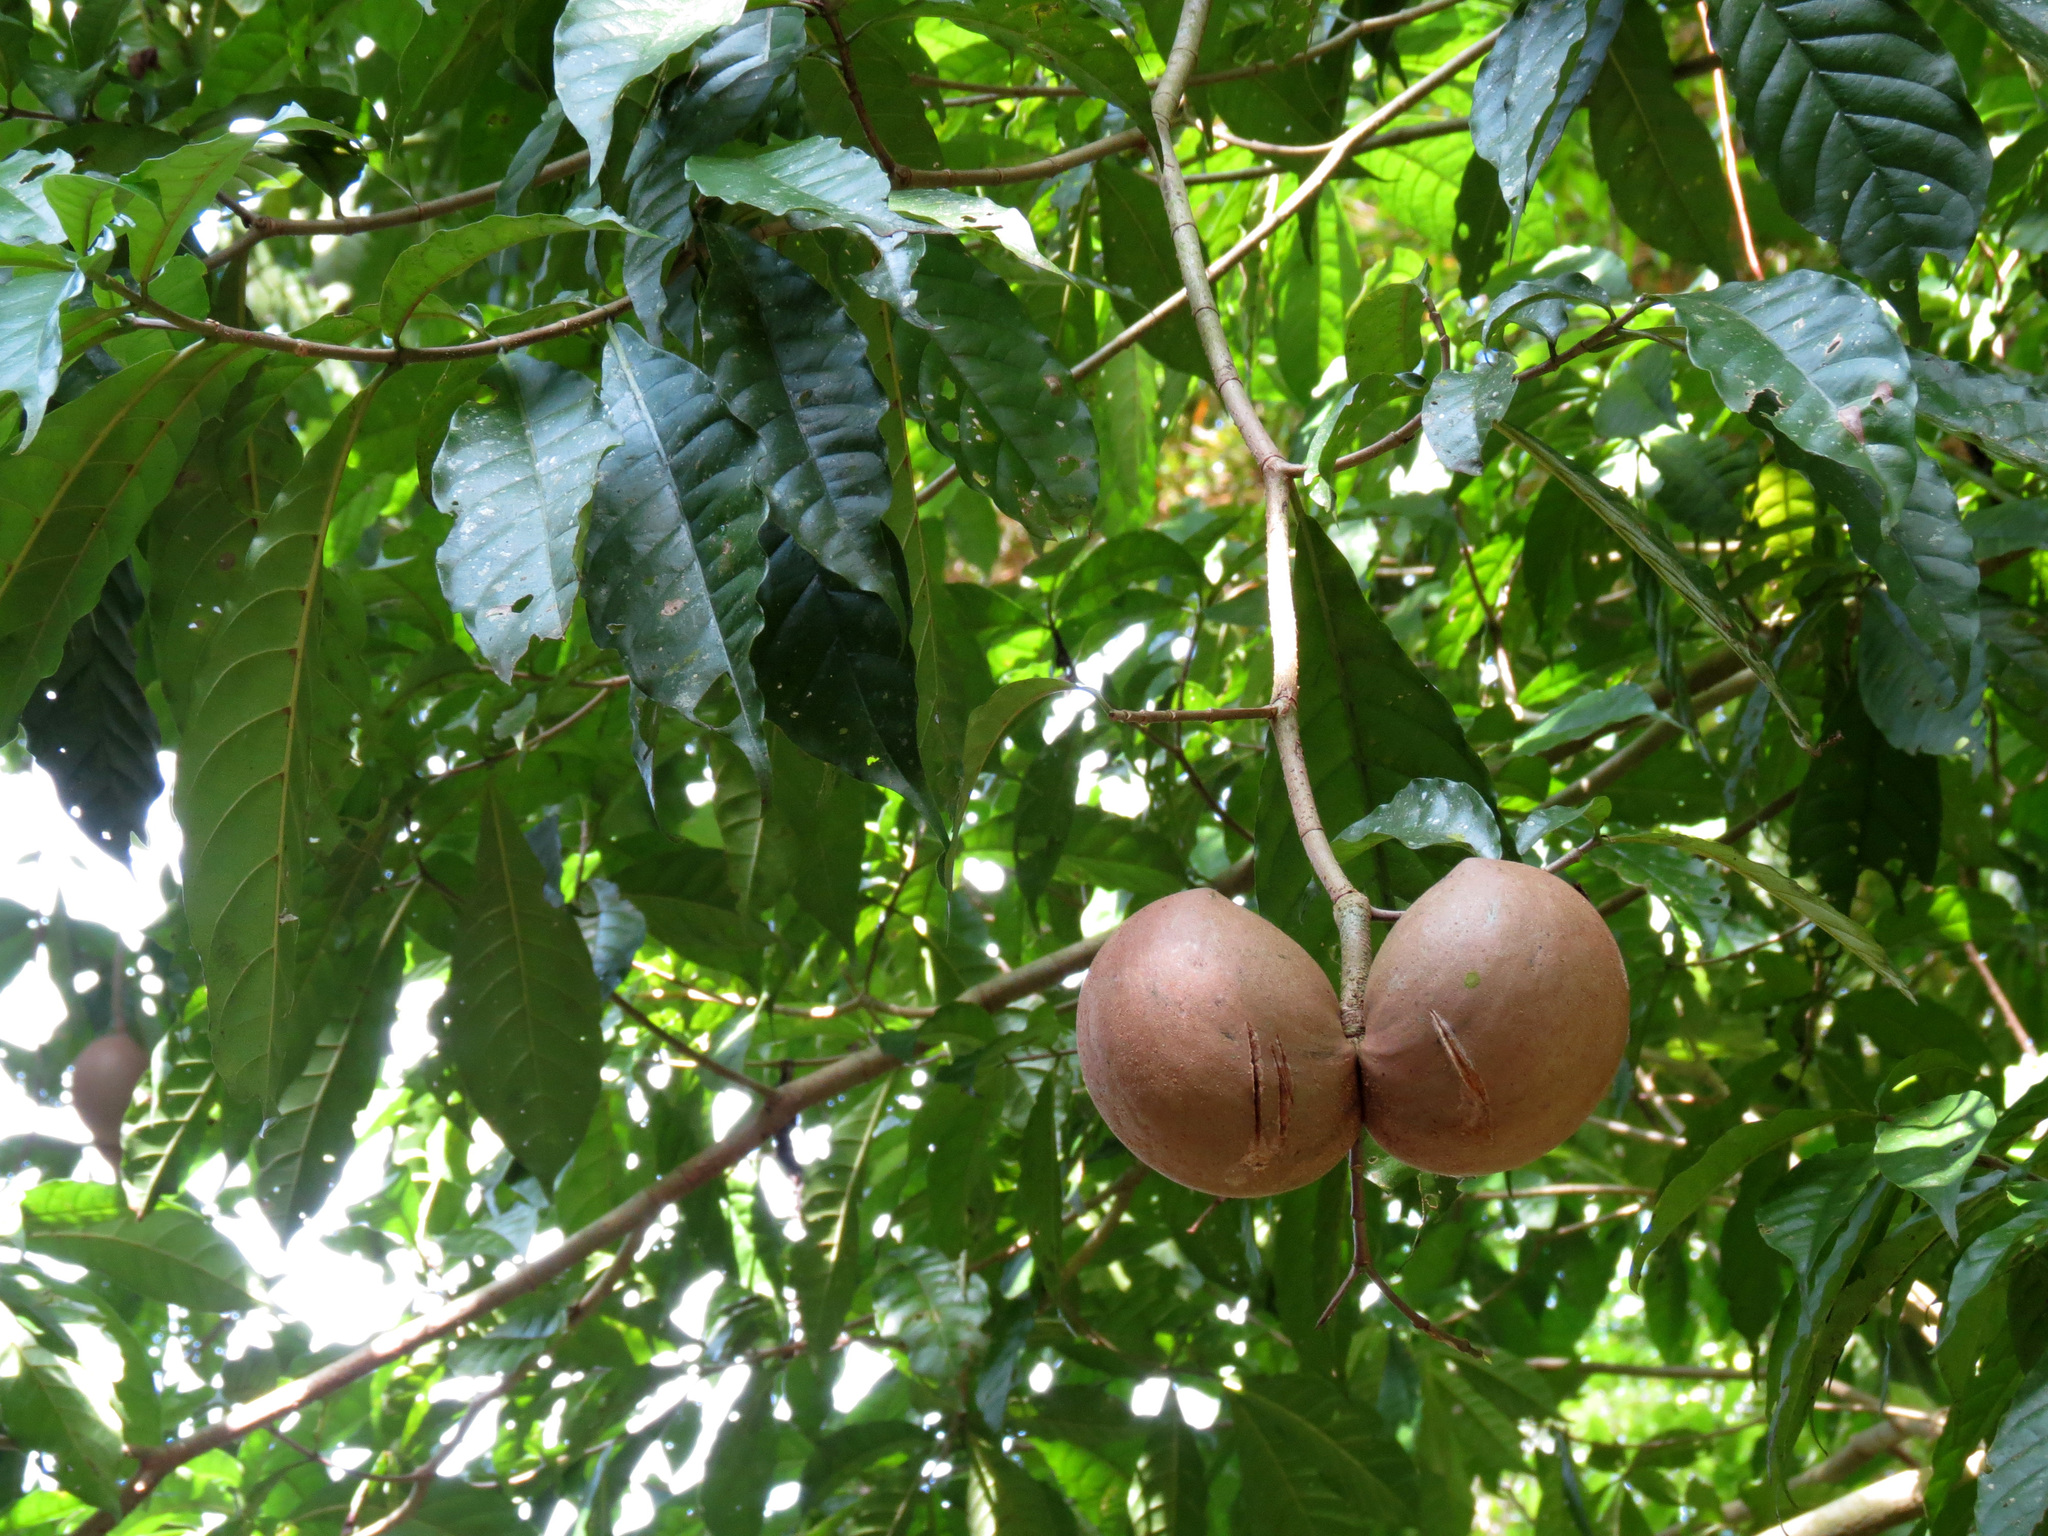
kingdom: Plantae
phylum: Tracheophyta
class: Magnoliopsida
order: Gentianales
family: Apocynaceae
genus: Tabernaemontana
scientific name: Tabernaemontana donnell-smithii
